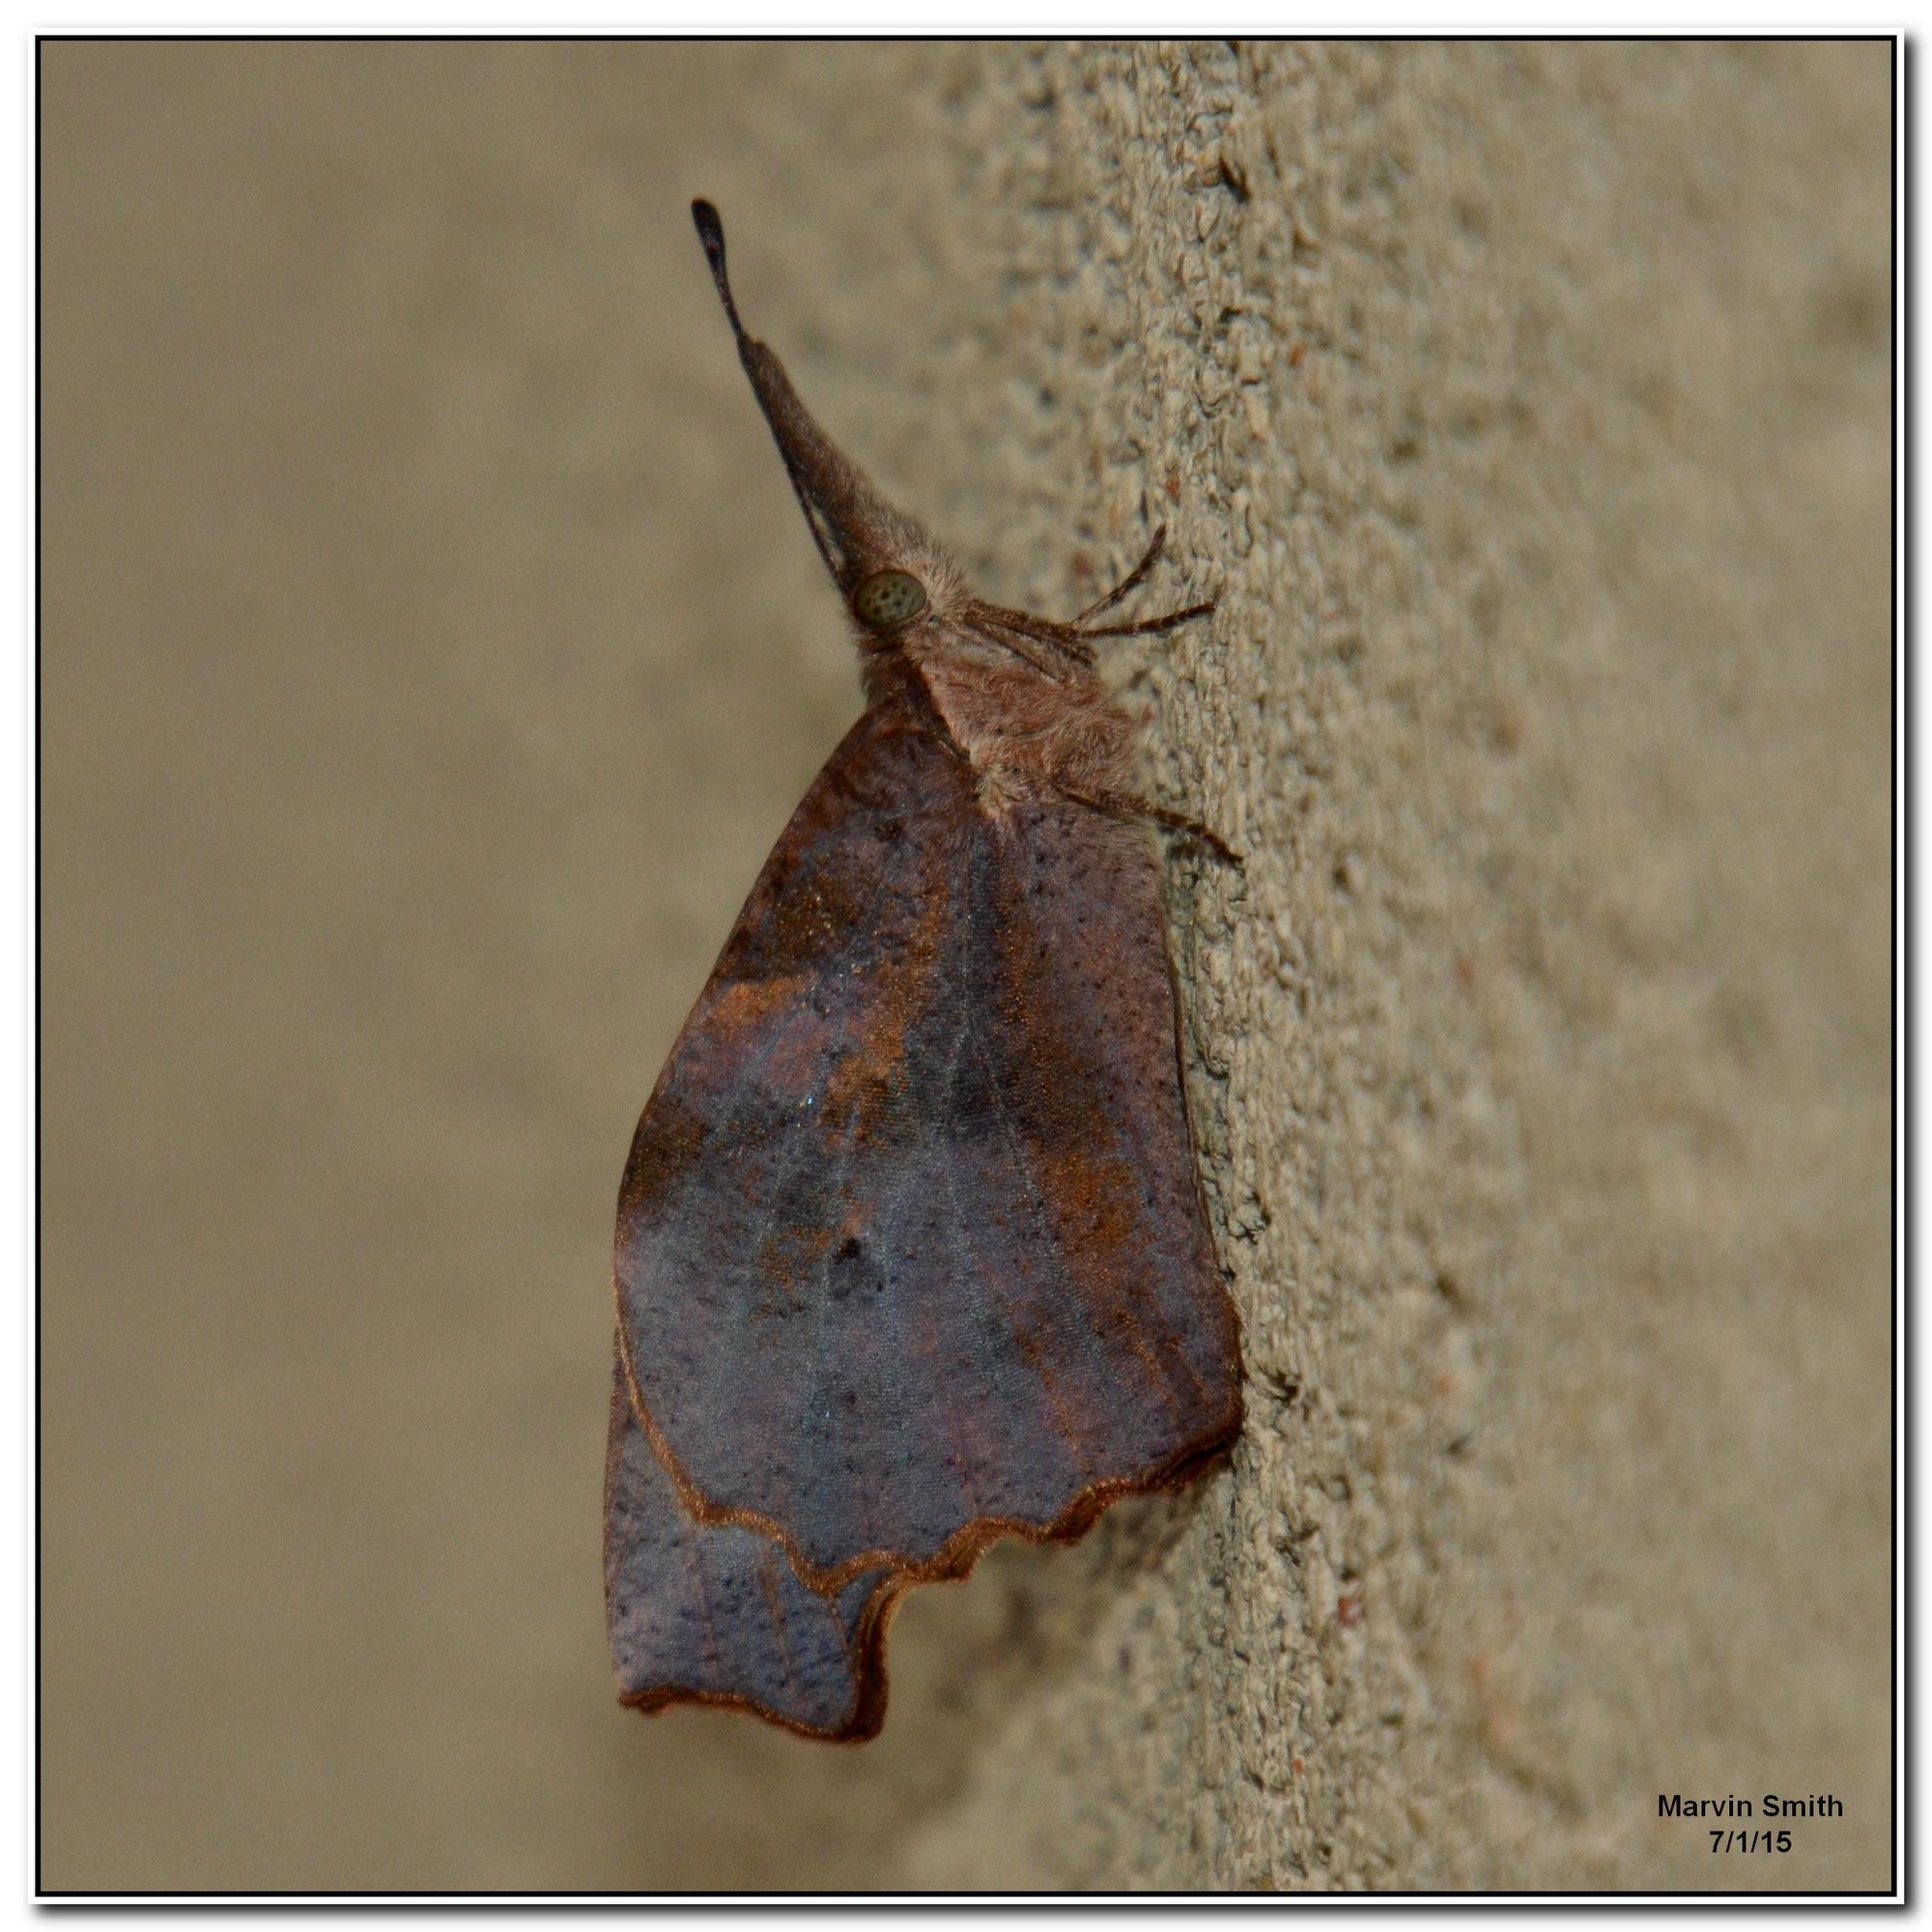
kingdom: Animalia
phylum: Arthropoda
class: Insecta
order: Lepidoptera
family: Nymphalidae
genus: Libytheana
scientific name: Libytheana carinenta
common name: American snout
